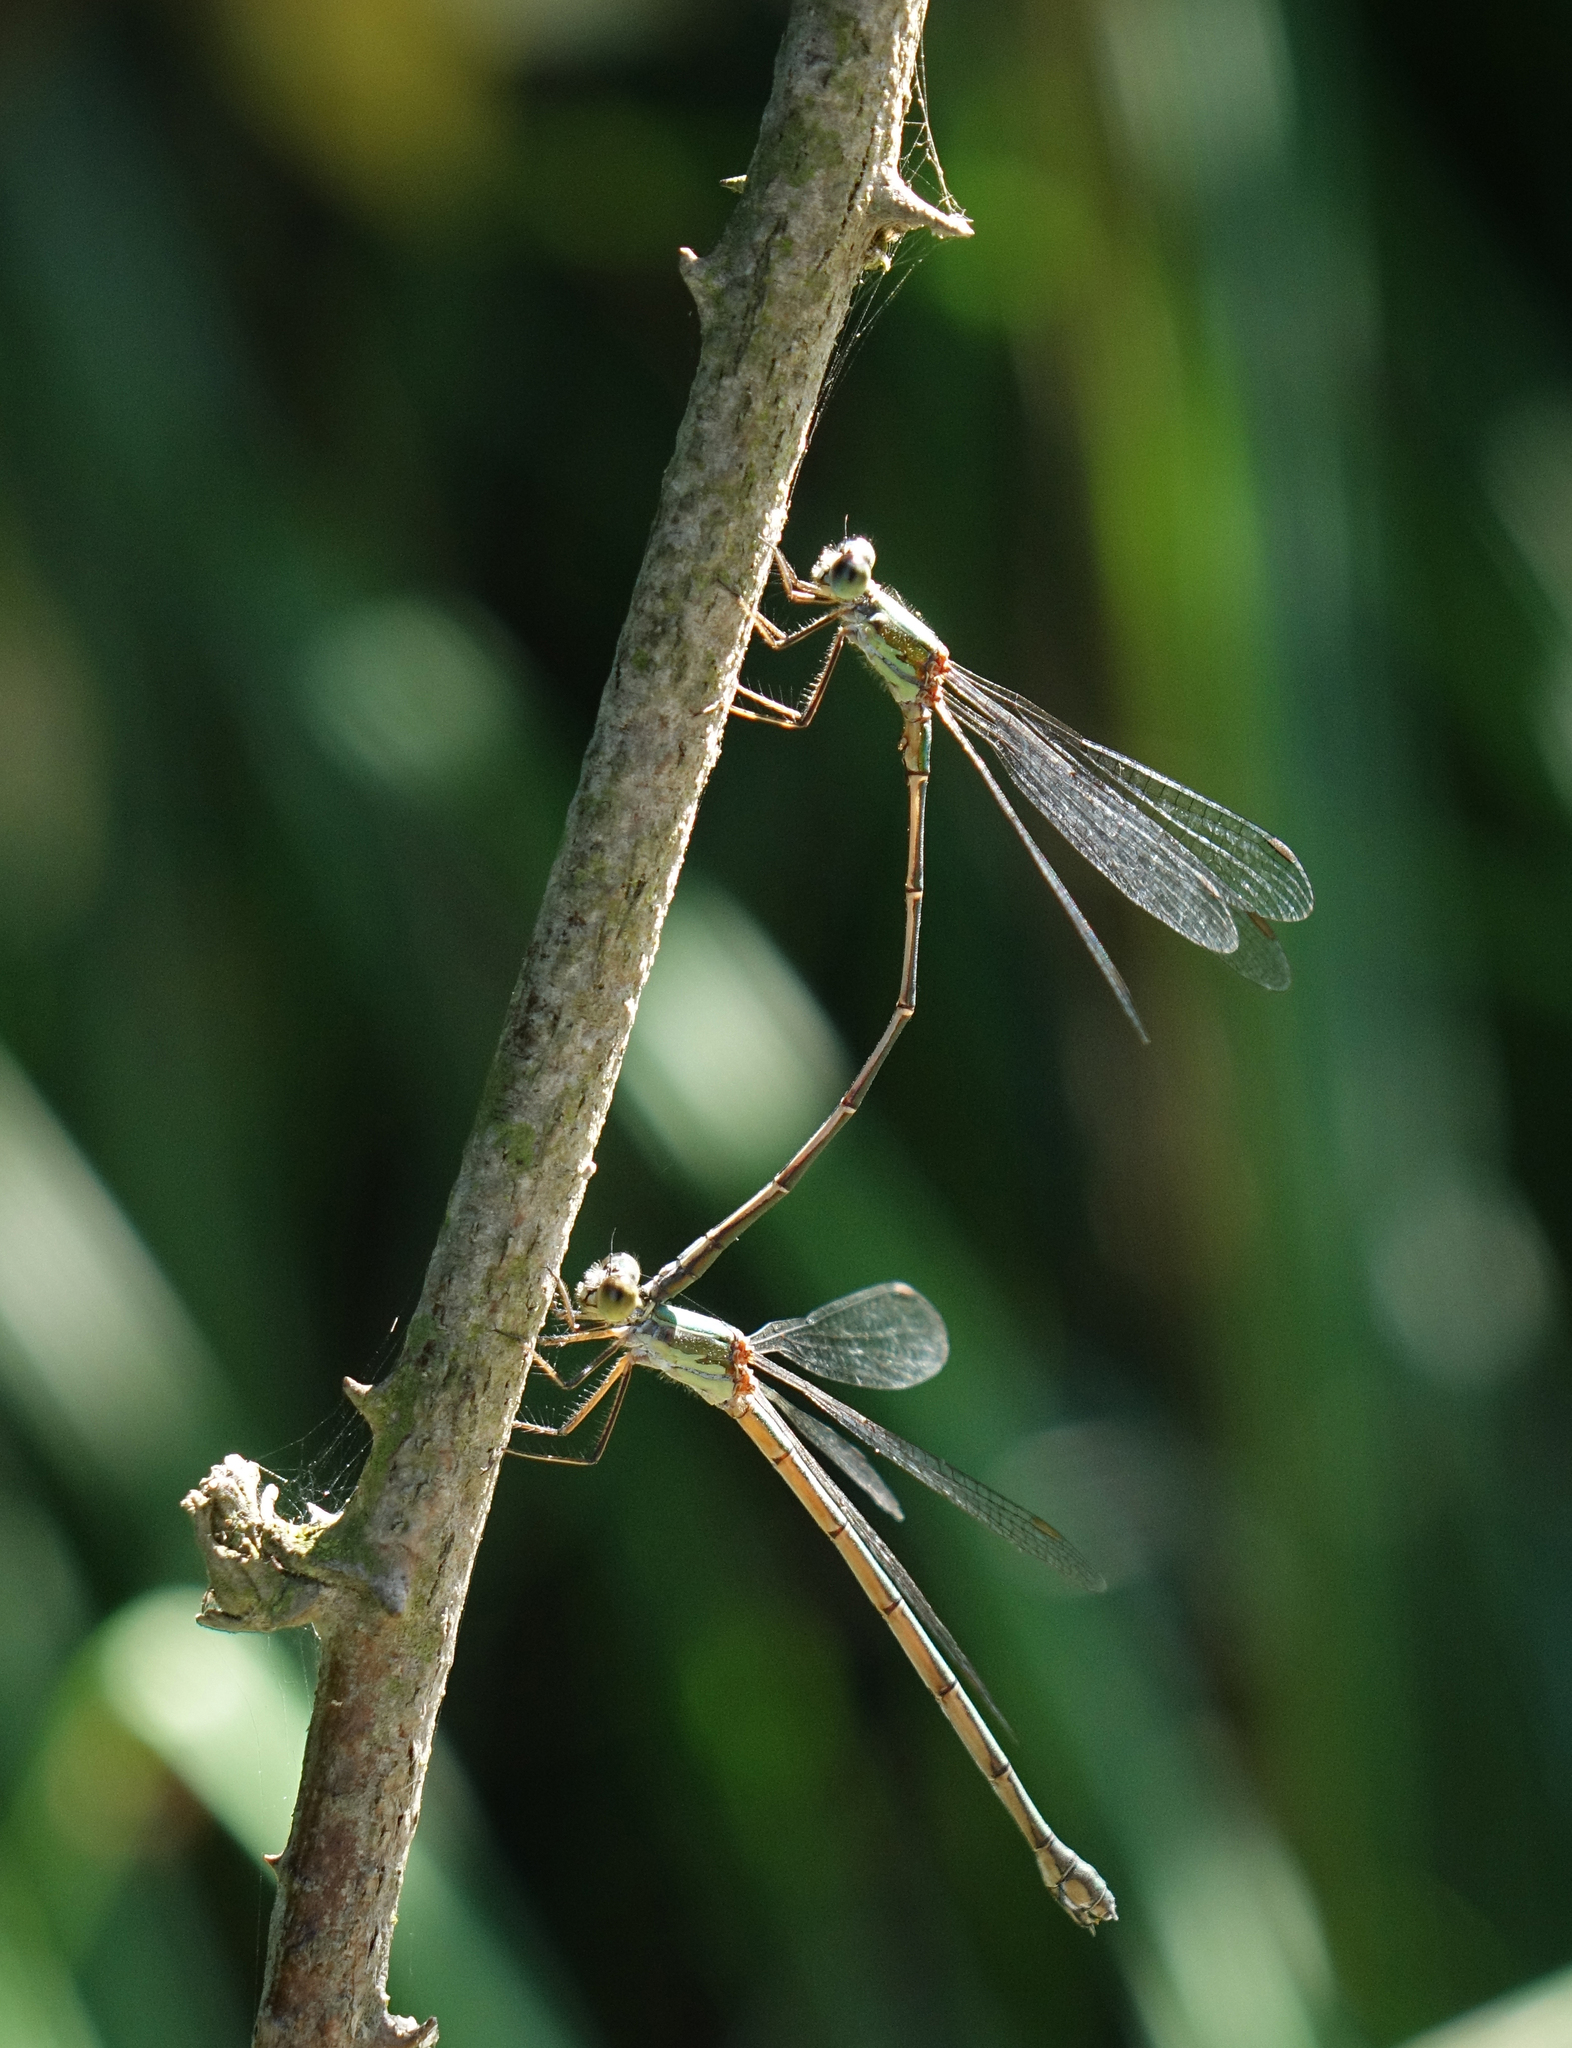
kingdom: Animalia
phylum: Arthropoda
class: Insecta
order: Odonata
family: Lestidae
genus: Chalcolestes
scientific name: Chalcolestes parvidens
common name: Eastern willow spreadwing
